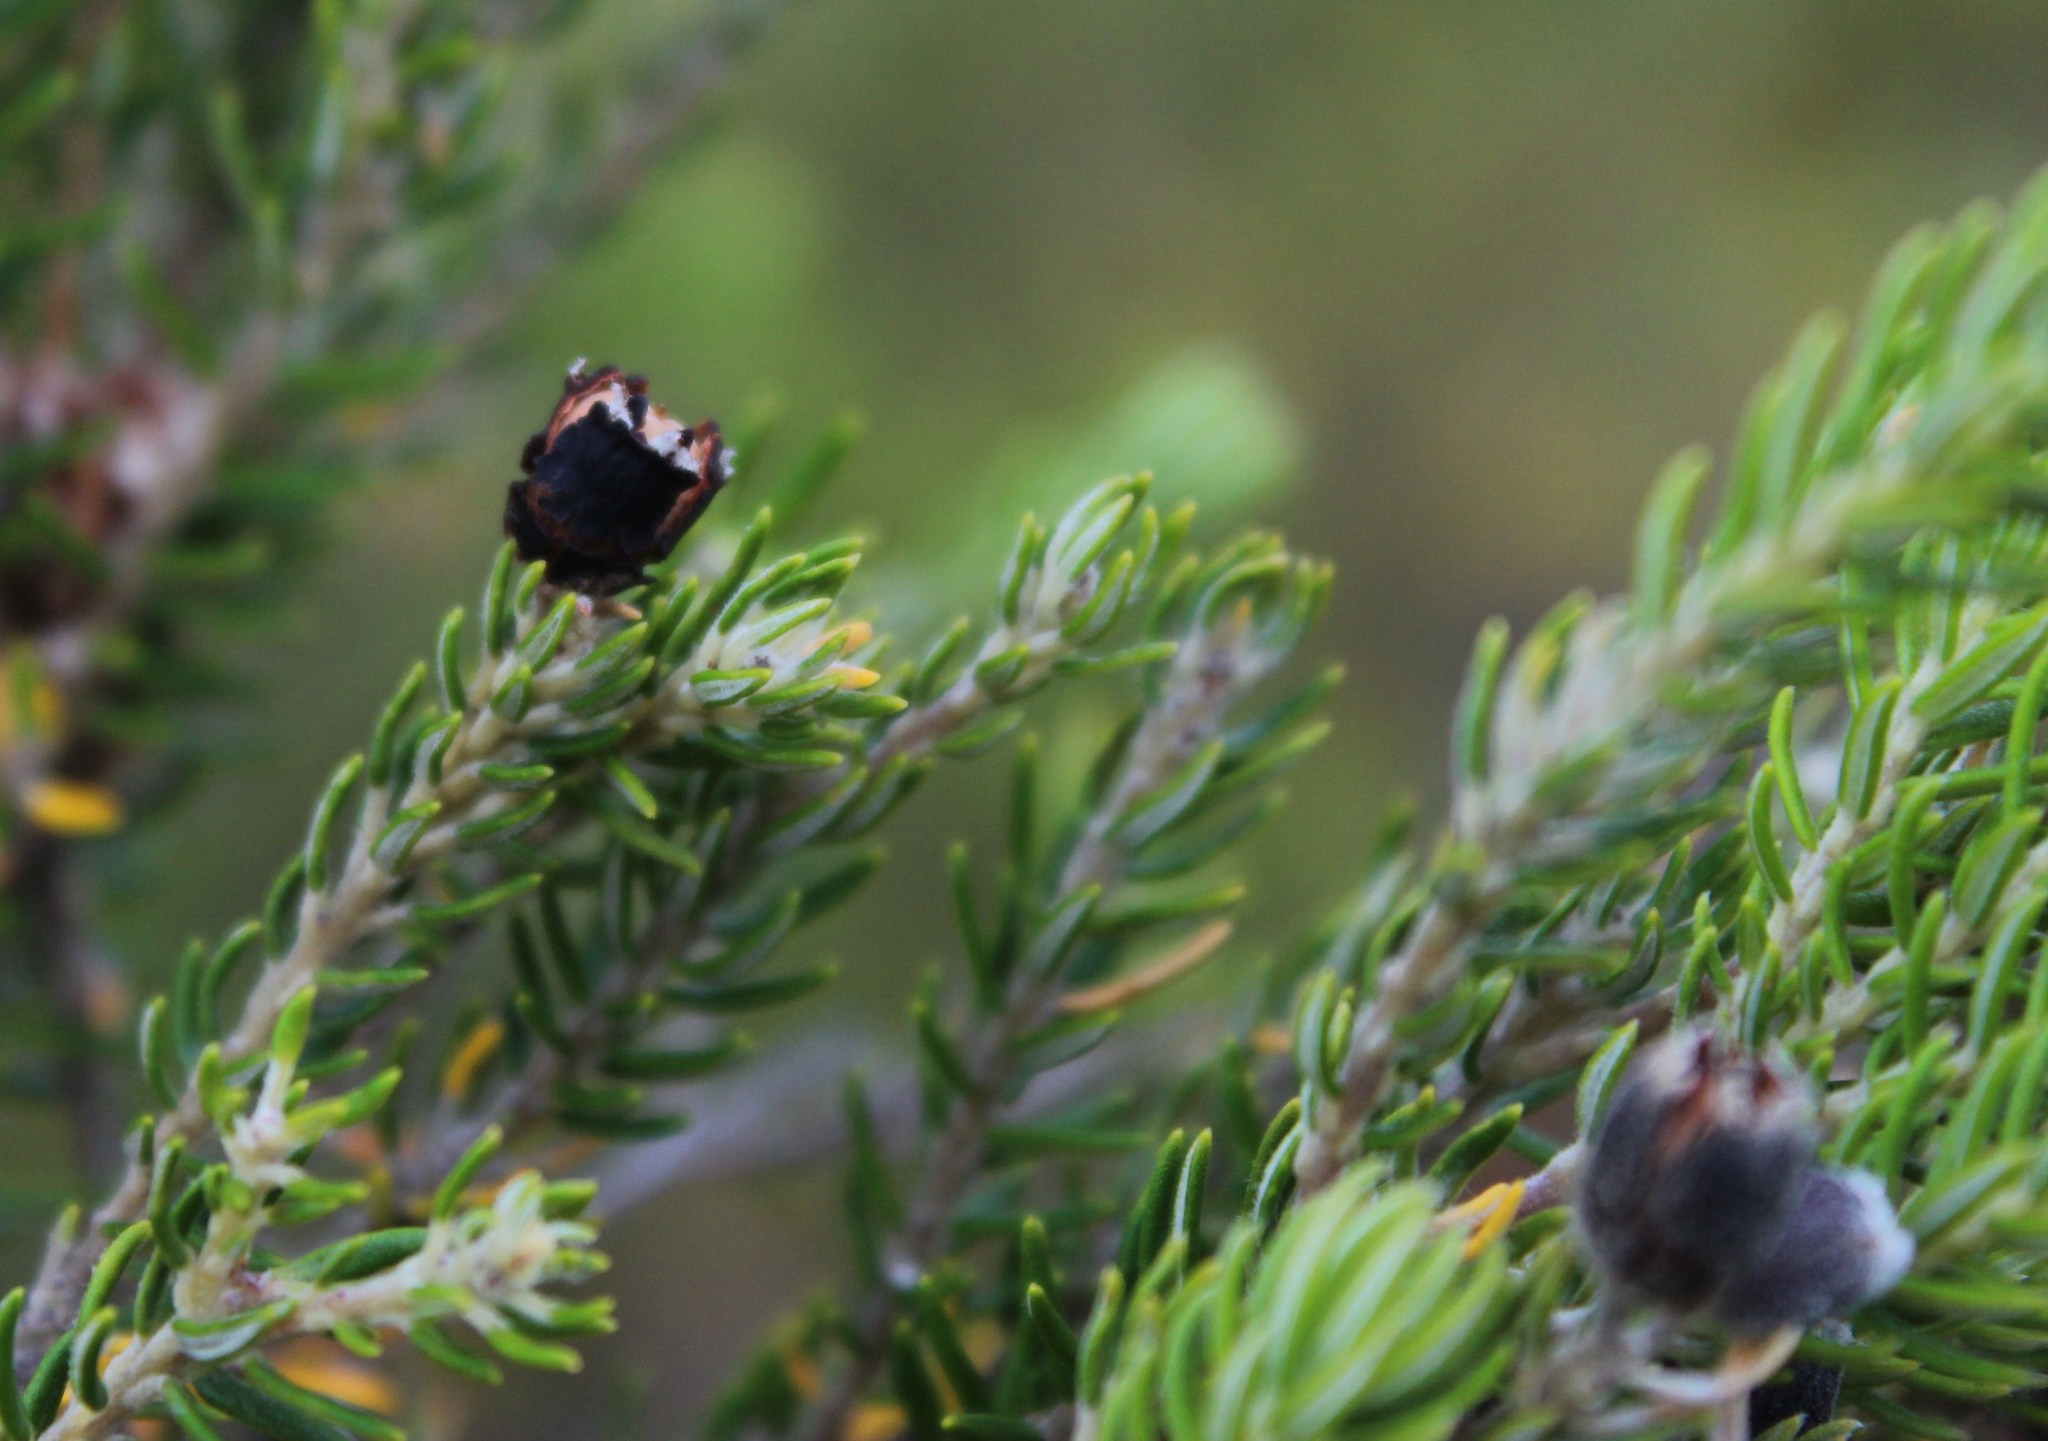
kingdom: Plantae
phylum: Tracheophyta
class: Magnoliopsida
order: Rosales
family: Rhamnaceae
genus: Phylica
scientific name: Phylica axillaris
